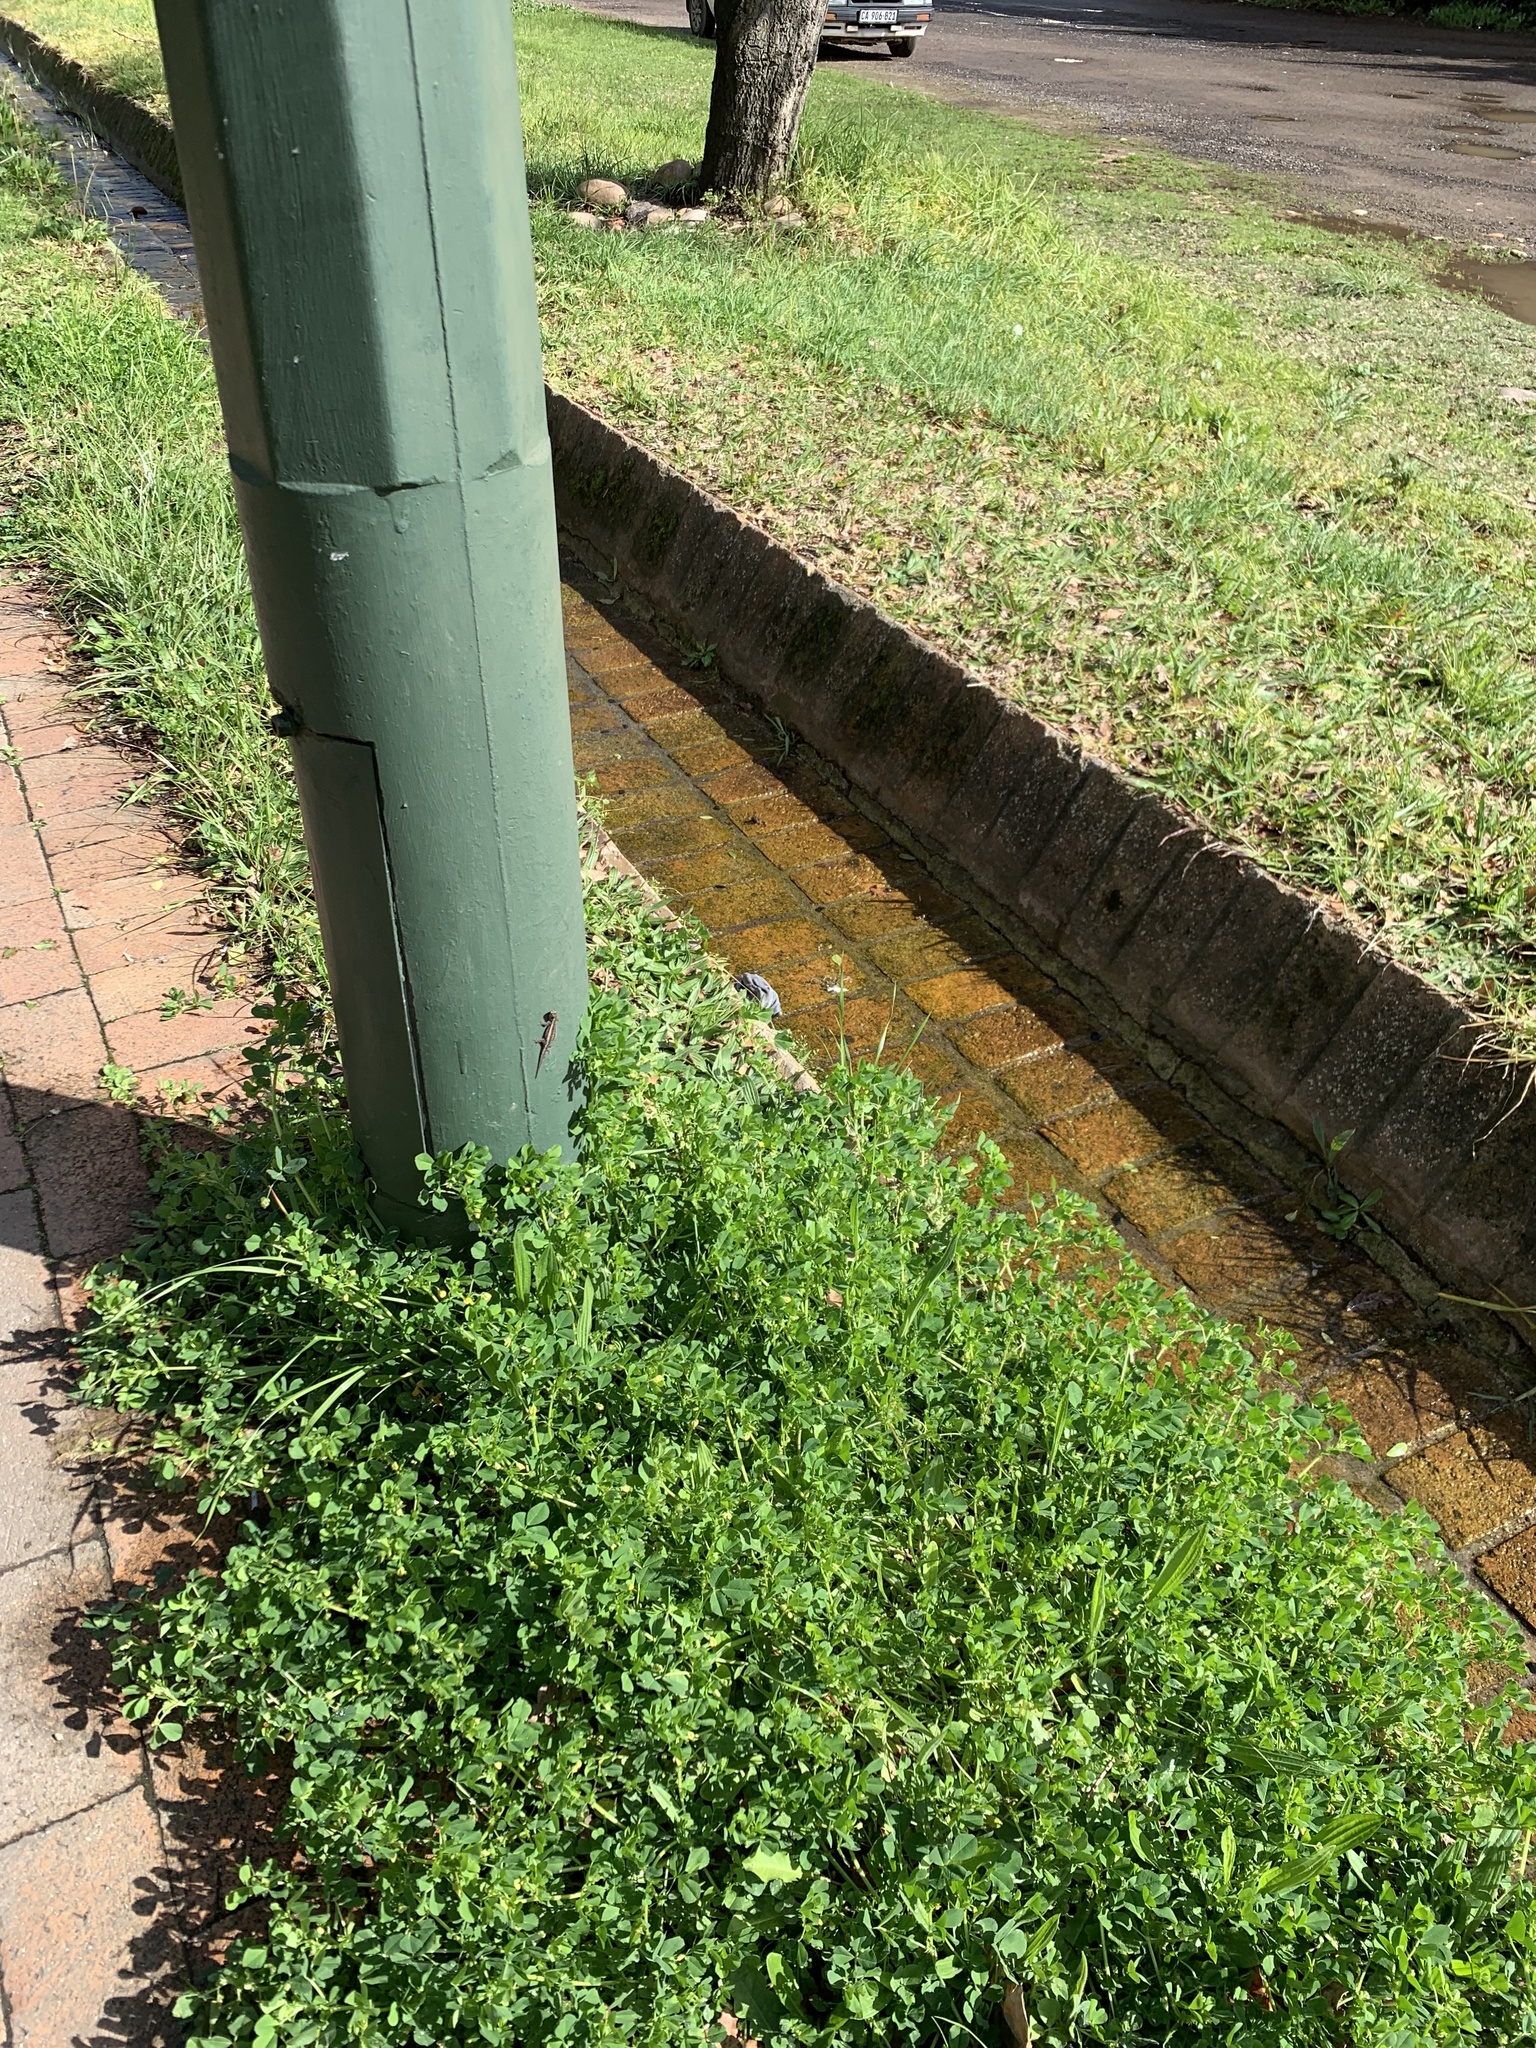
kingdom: Plantae
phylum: Tracheophyta
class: Magnoliopsida
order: Fabales
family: Fabaceae
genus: Medicago
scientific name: Medicago polymorpha
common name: Burclover
